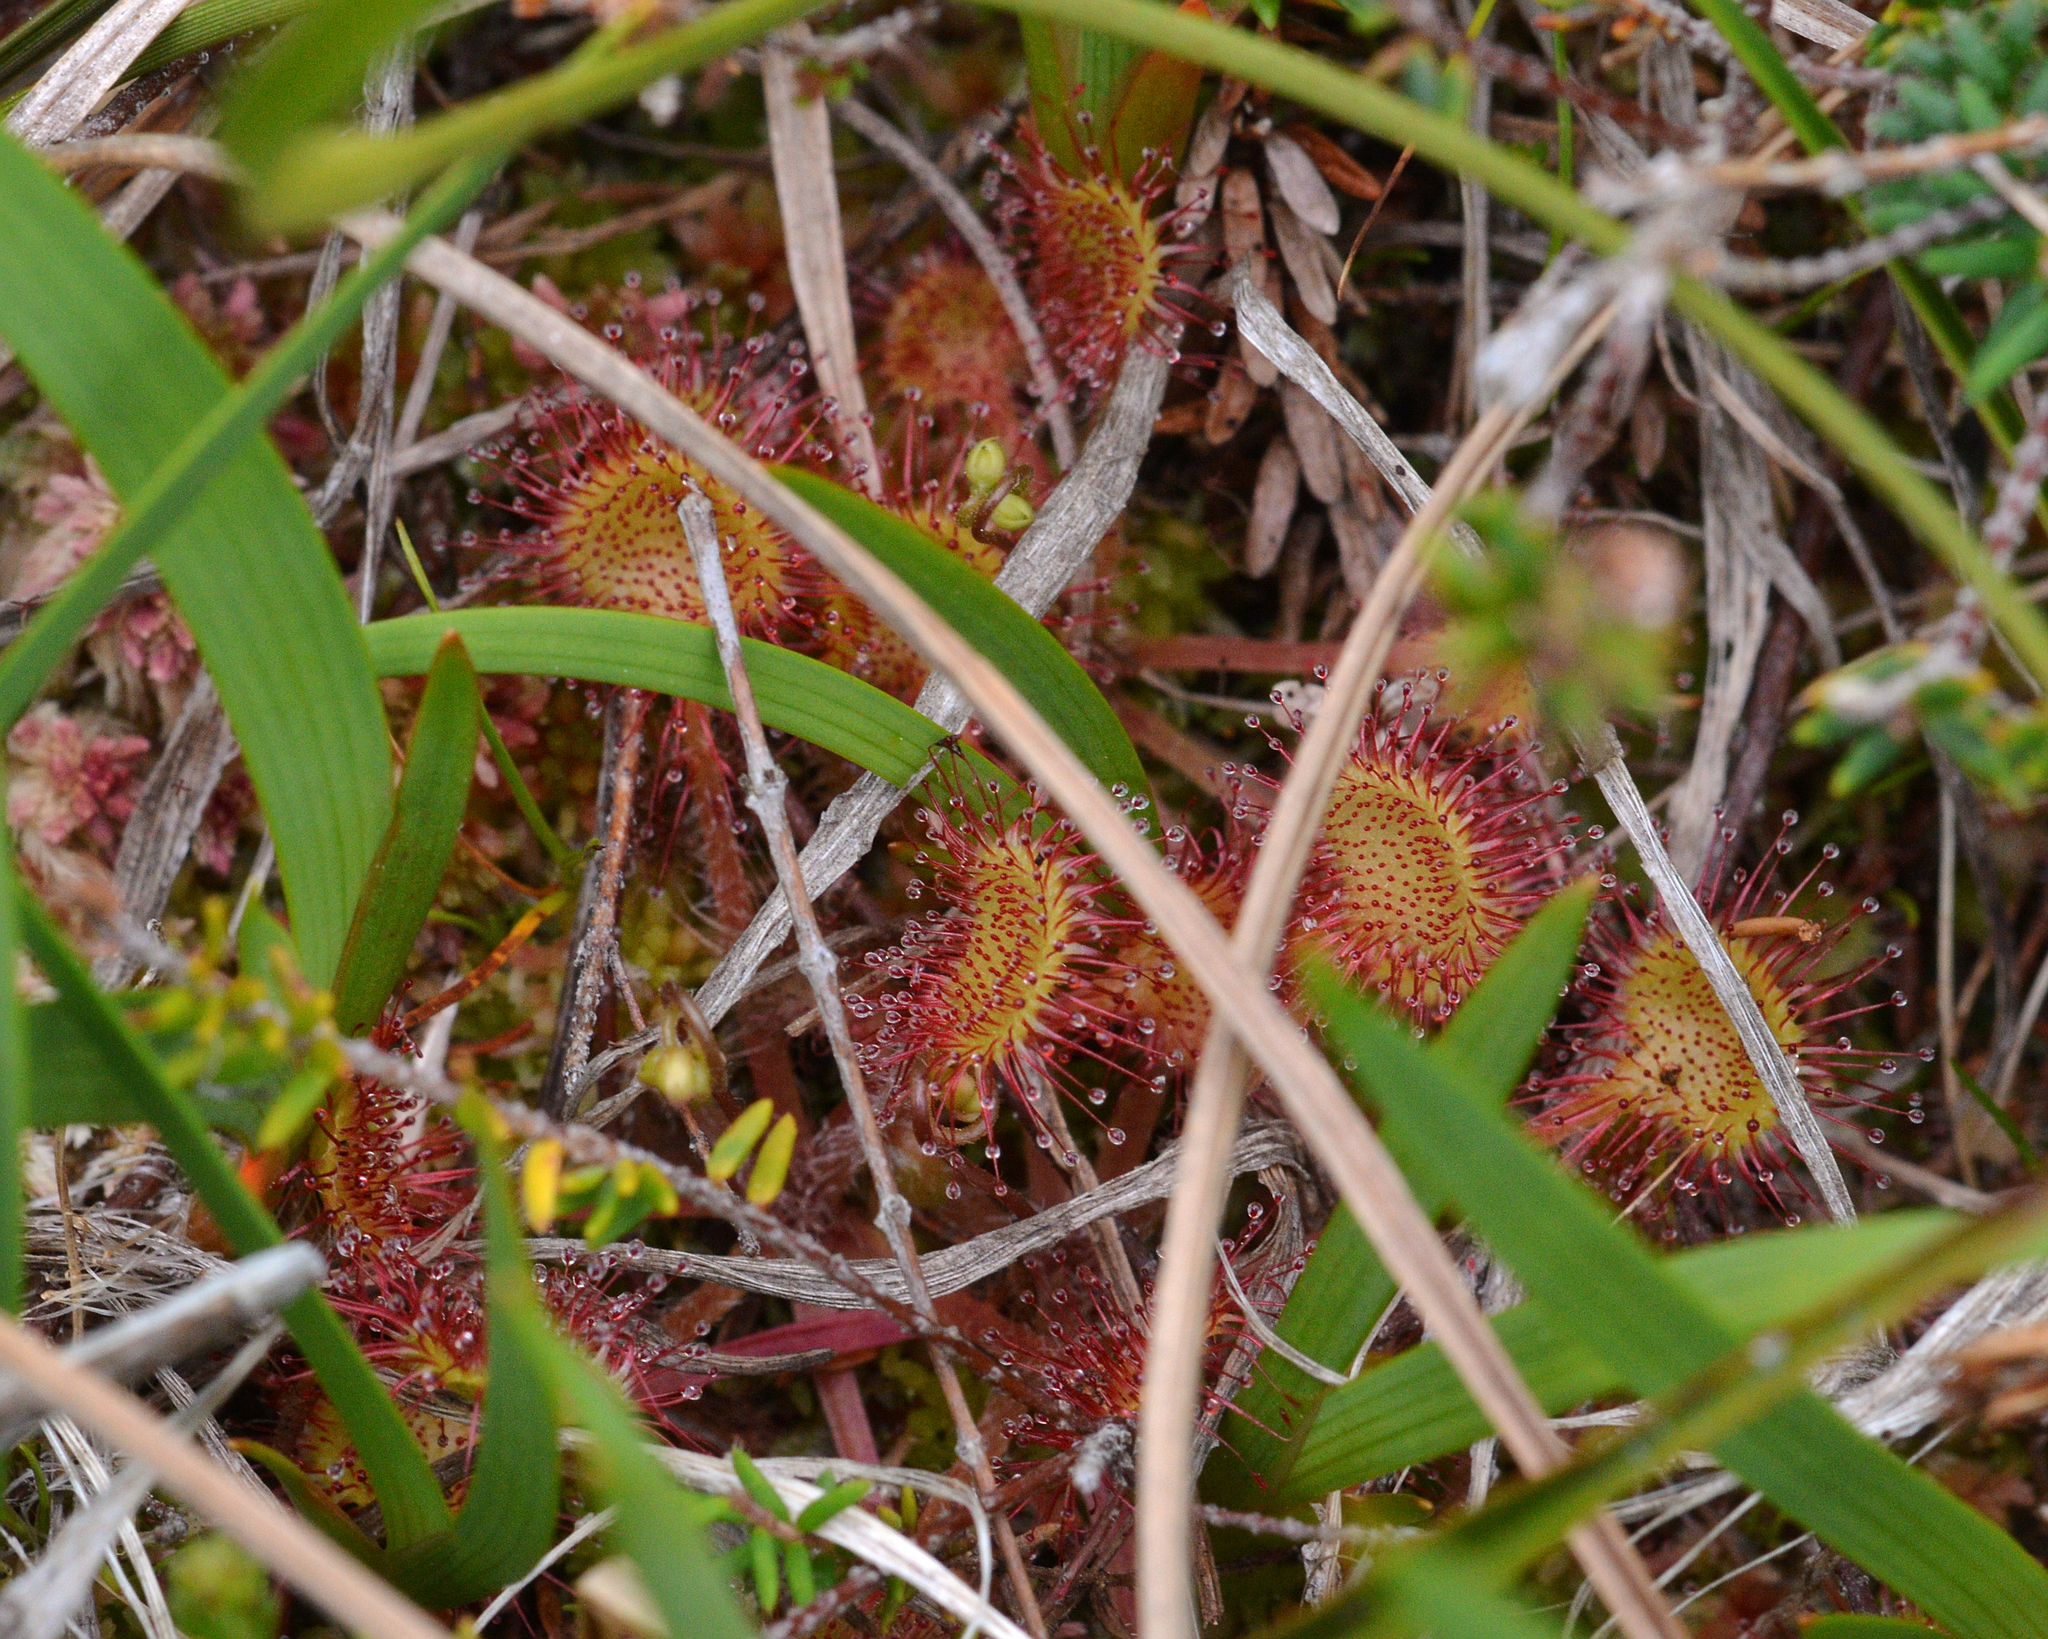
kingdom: Plantae
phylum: Tracheophyta
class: Magnoliopsida
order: Caryophyllales
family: Droseraceae
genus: Drosera
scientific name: Drosera rotundifolia
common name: Round-leaved sundew
